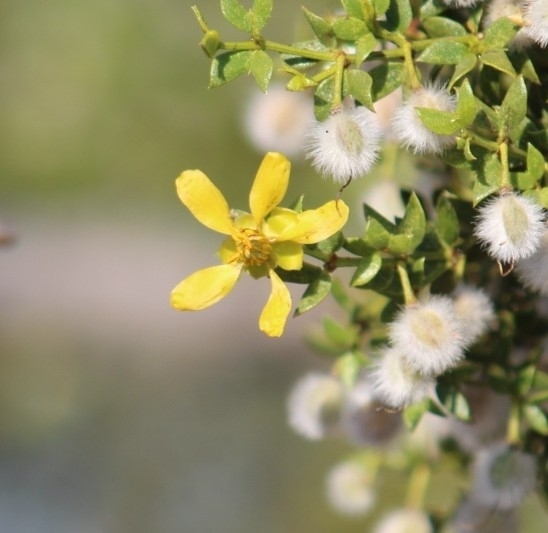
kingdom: Plantae
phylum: Tracheophyta
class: Magnoliopsida
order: Zygophyllales
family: Zygophyllaceae
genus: Larrea
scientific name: Larrea tridentata
